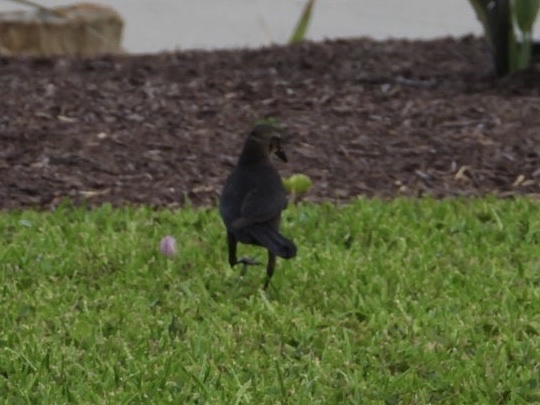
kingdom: Animalia
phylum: Chordata
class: Aves
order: Passeriformes
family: Icteridae
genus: Quiscalus
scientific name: Quiscalus mexicanus
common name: Great-tailed grackle
